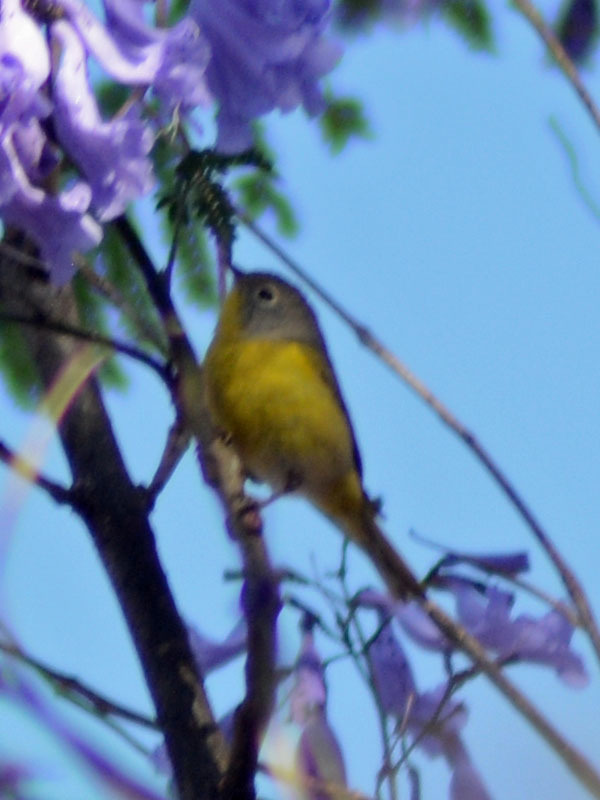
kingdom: Animalia
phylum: Chordata
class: Aves
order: Passeriformes
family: Parulidae
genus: Leiothlypis
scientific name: Leiothlypis ruficapilla
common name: Nashville warbler
